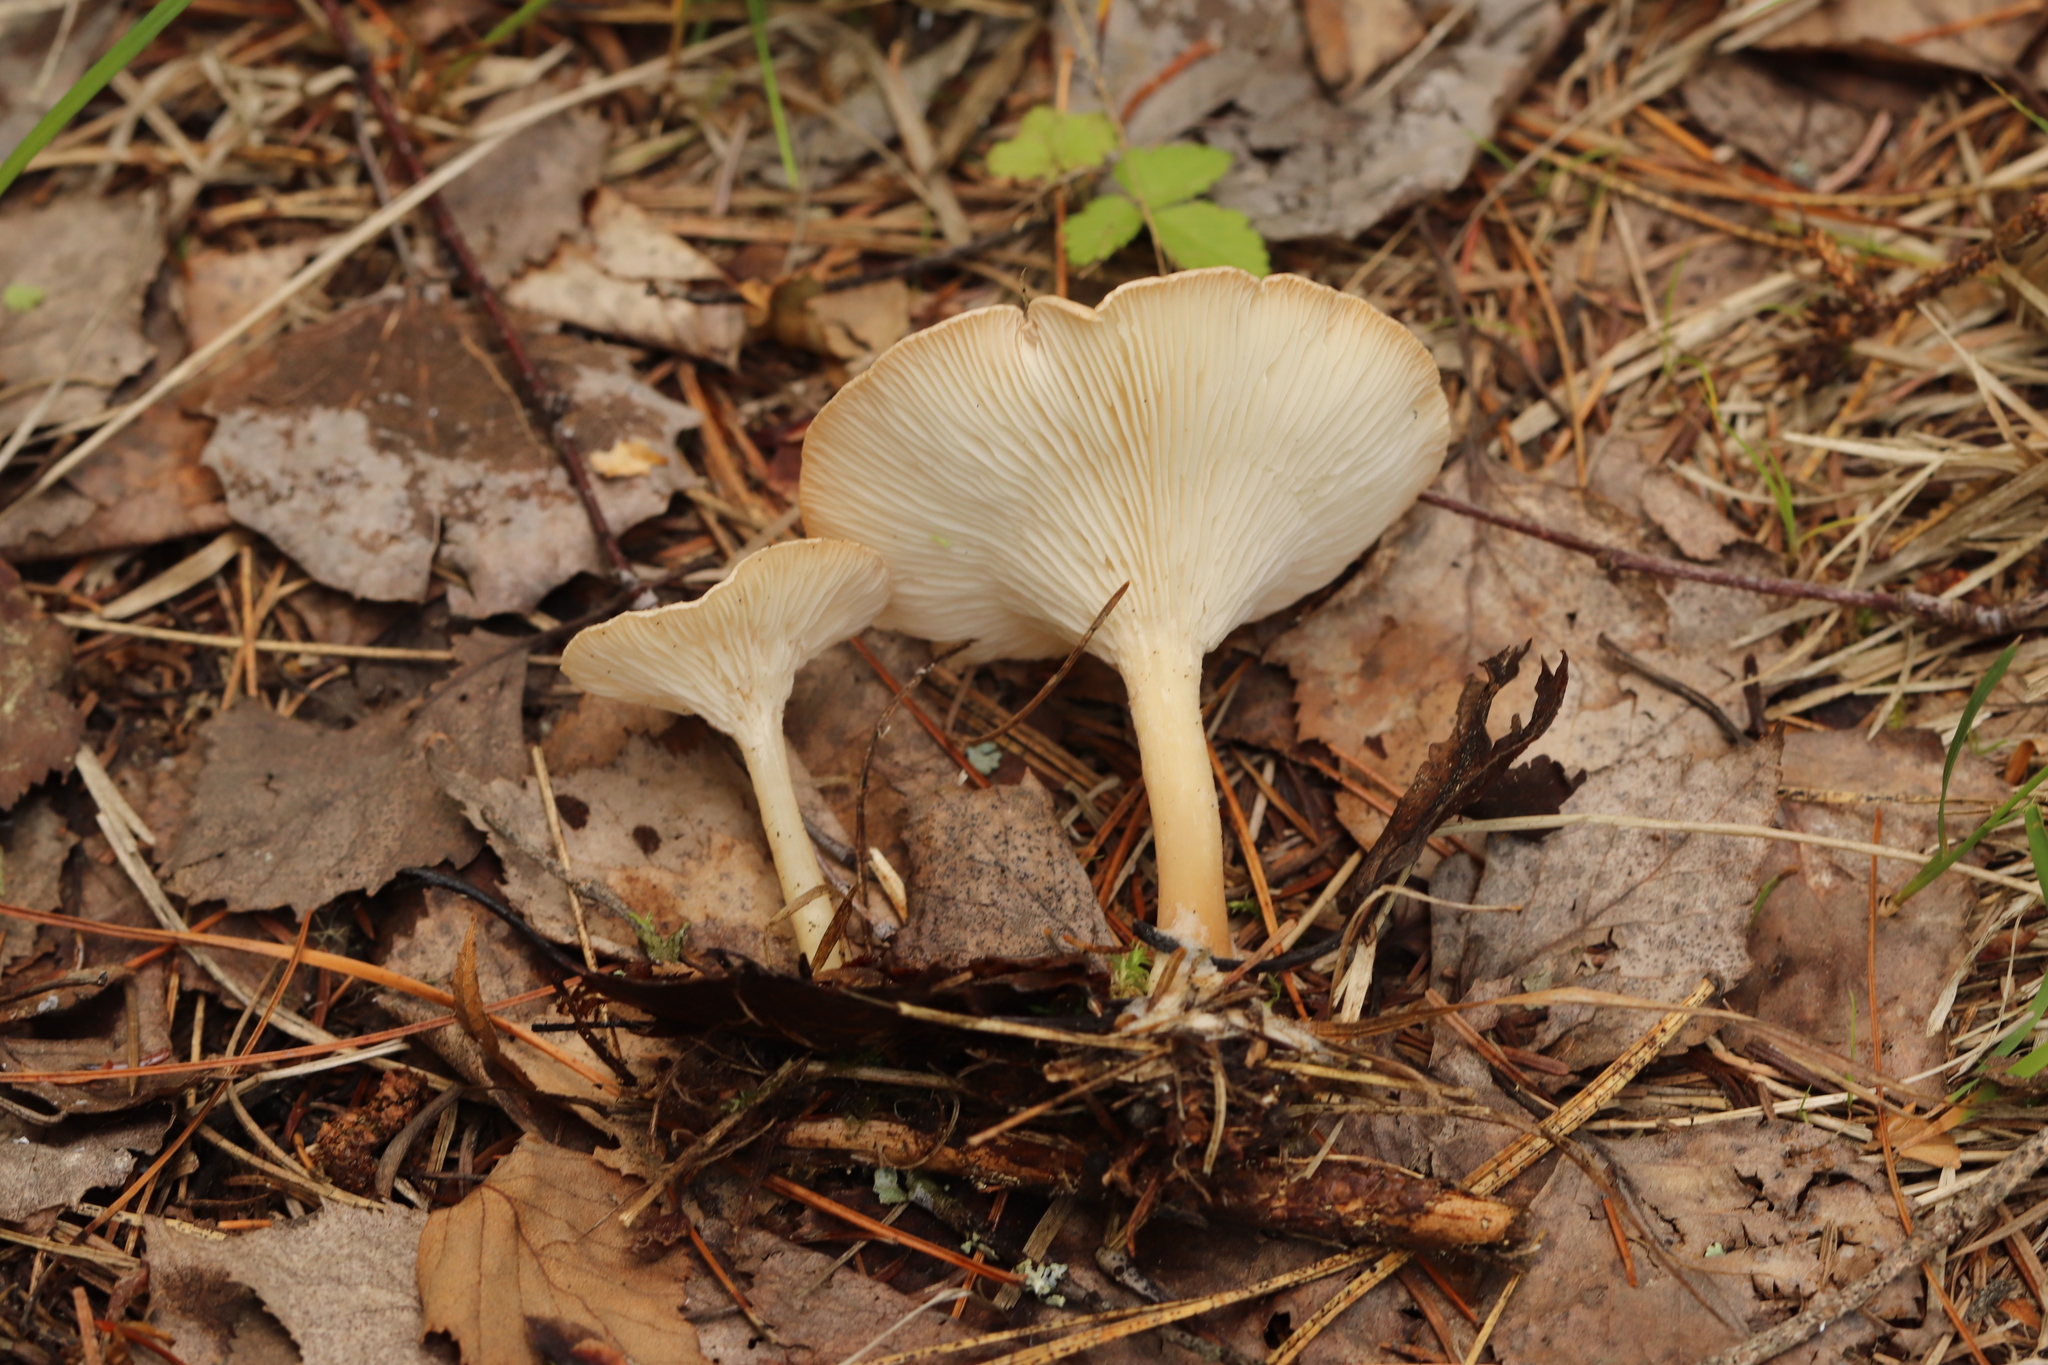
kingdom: Fungi
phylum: Basidiomycota
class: Agaricomycetes
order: Agaricales
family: Tricholomataceae
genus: Infundibulicybe
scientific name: Infundibulicybe gibba
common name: Common funnel
